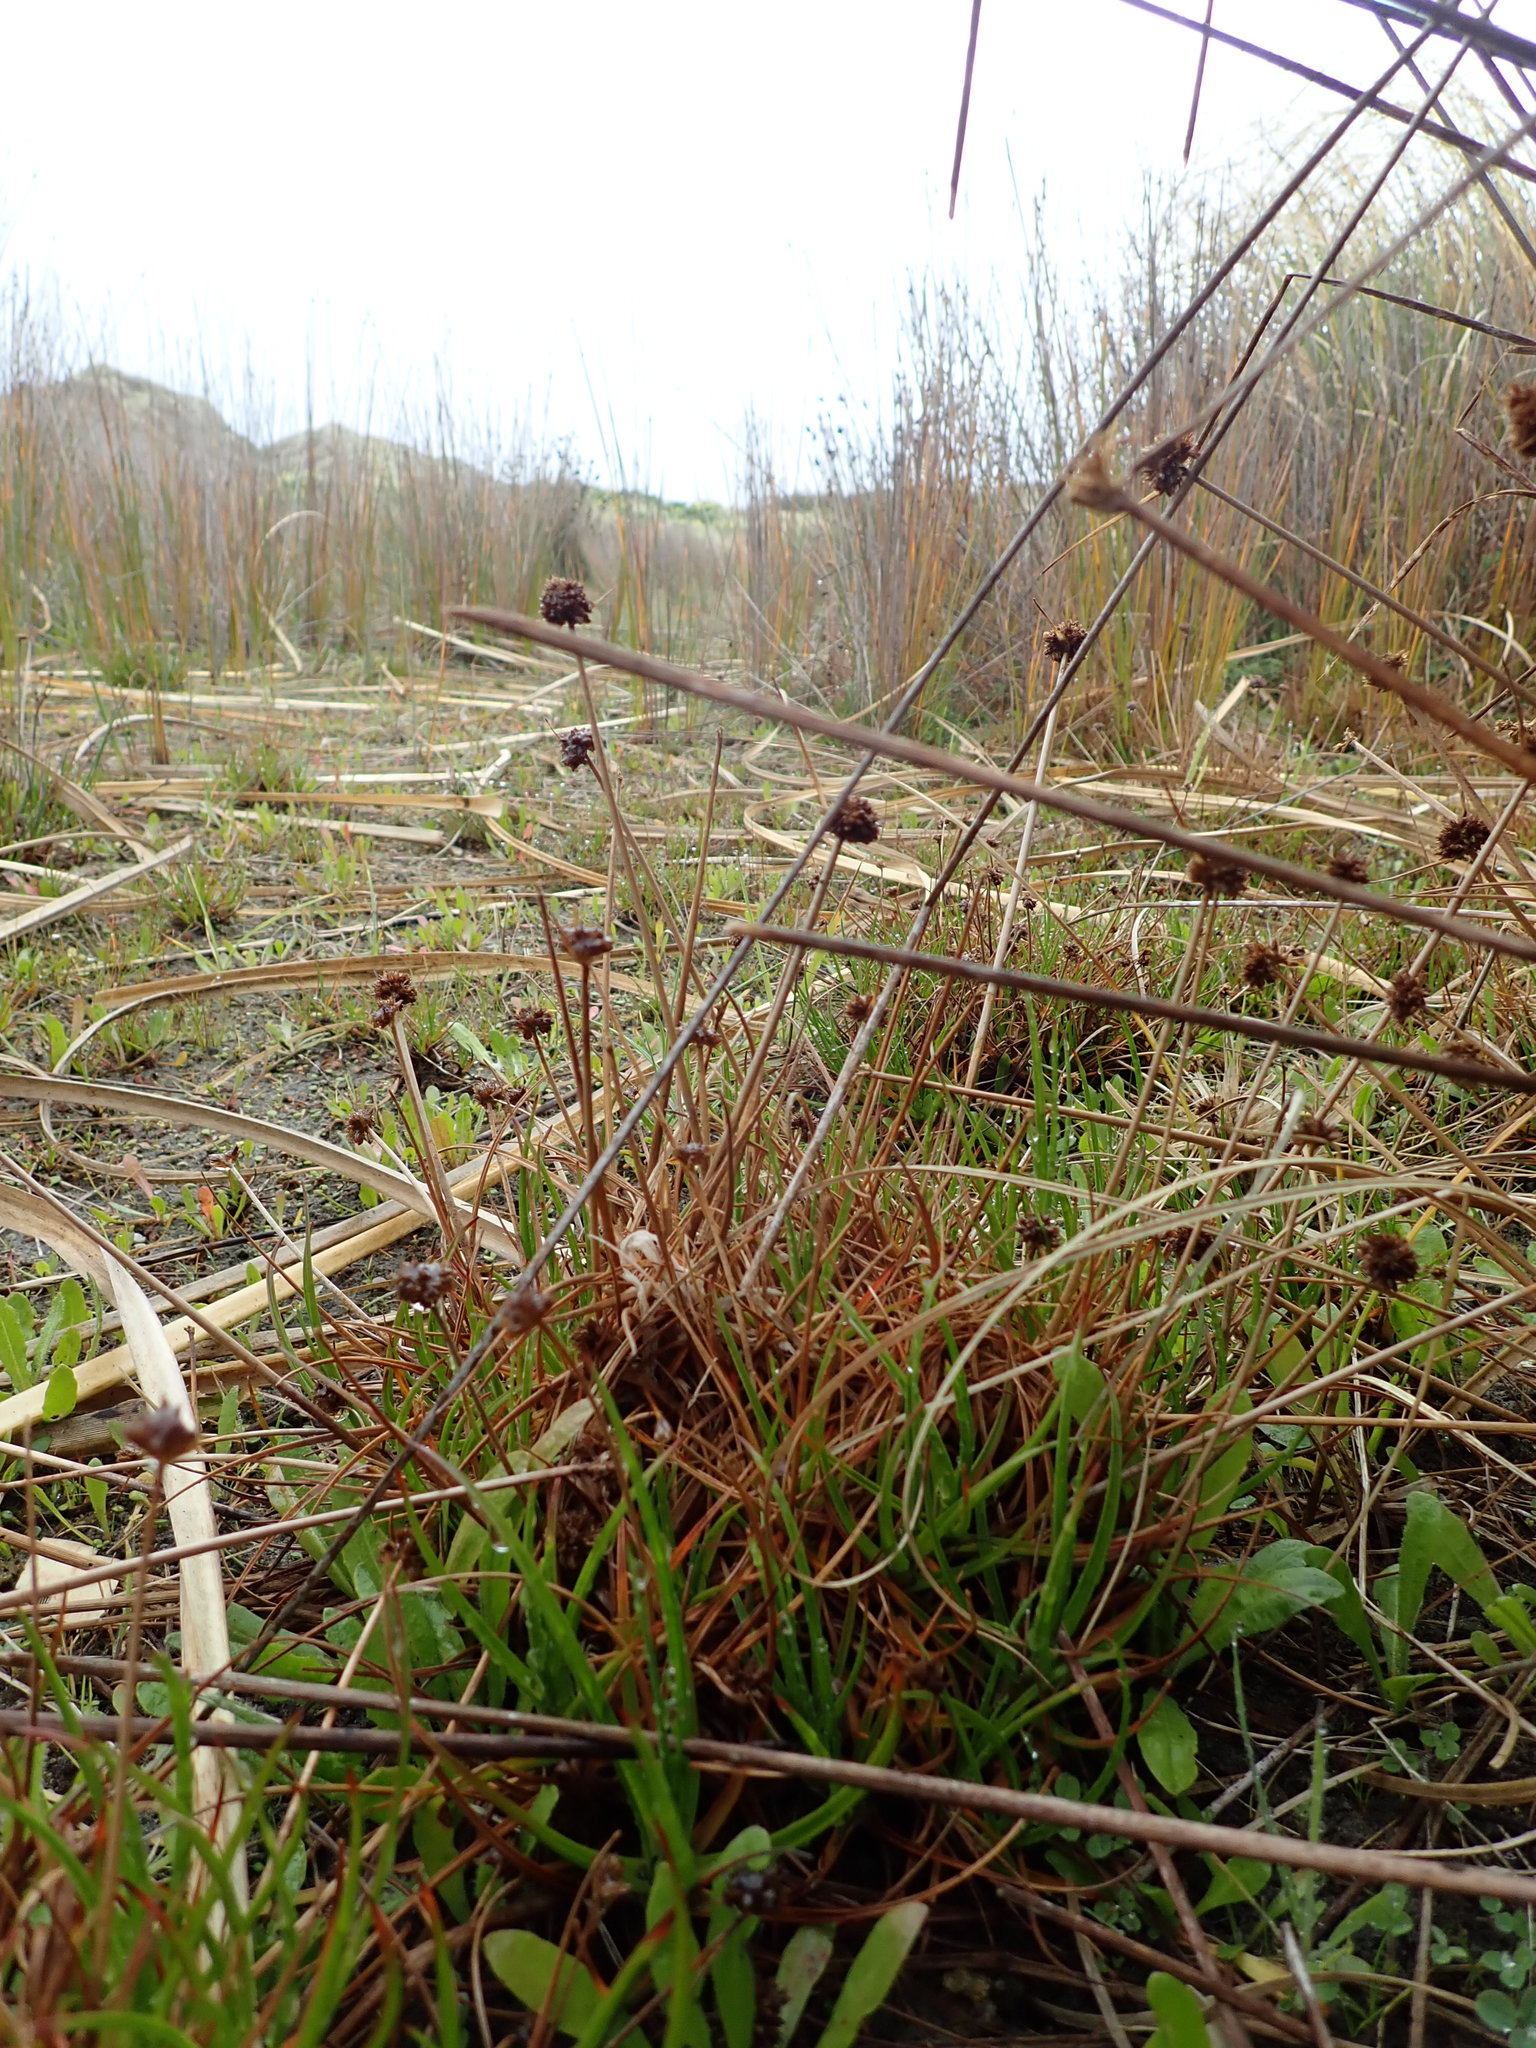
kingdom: Plantae
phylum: Tracheophyta
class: Liliopsida
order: Poales
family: Juncaceae
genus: Juncus
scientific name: Juncus caespiticius
